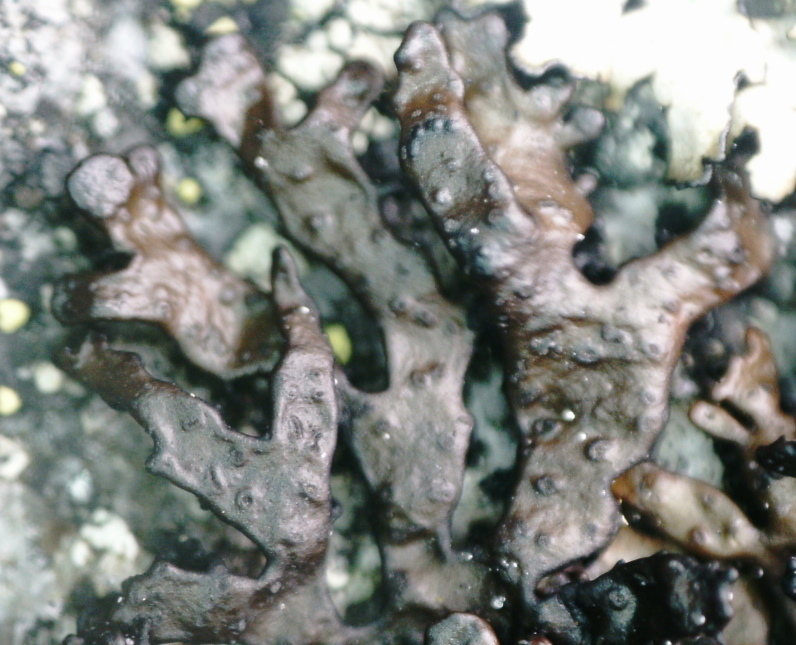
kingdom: Fungi
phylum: Ascomycota
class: Lecanoromycetes
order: Lecanorales
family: Parmeliaceae
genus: Melanelia
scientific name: Melanelia stygia
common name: Alpine camouflage lichen
